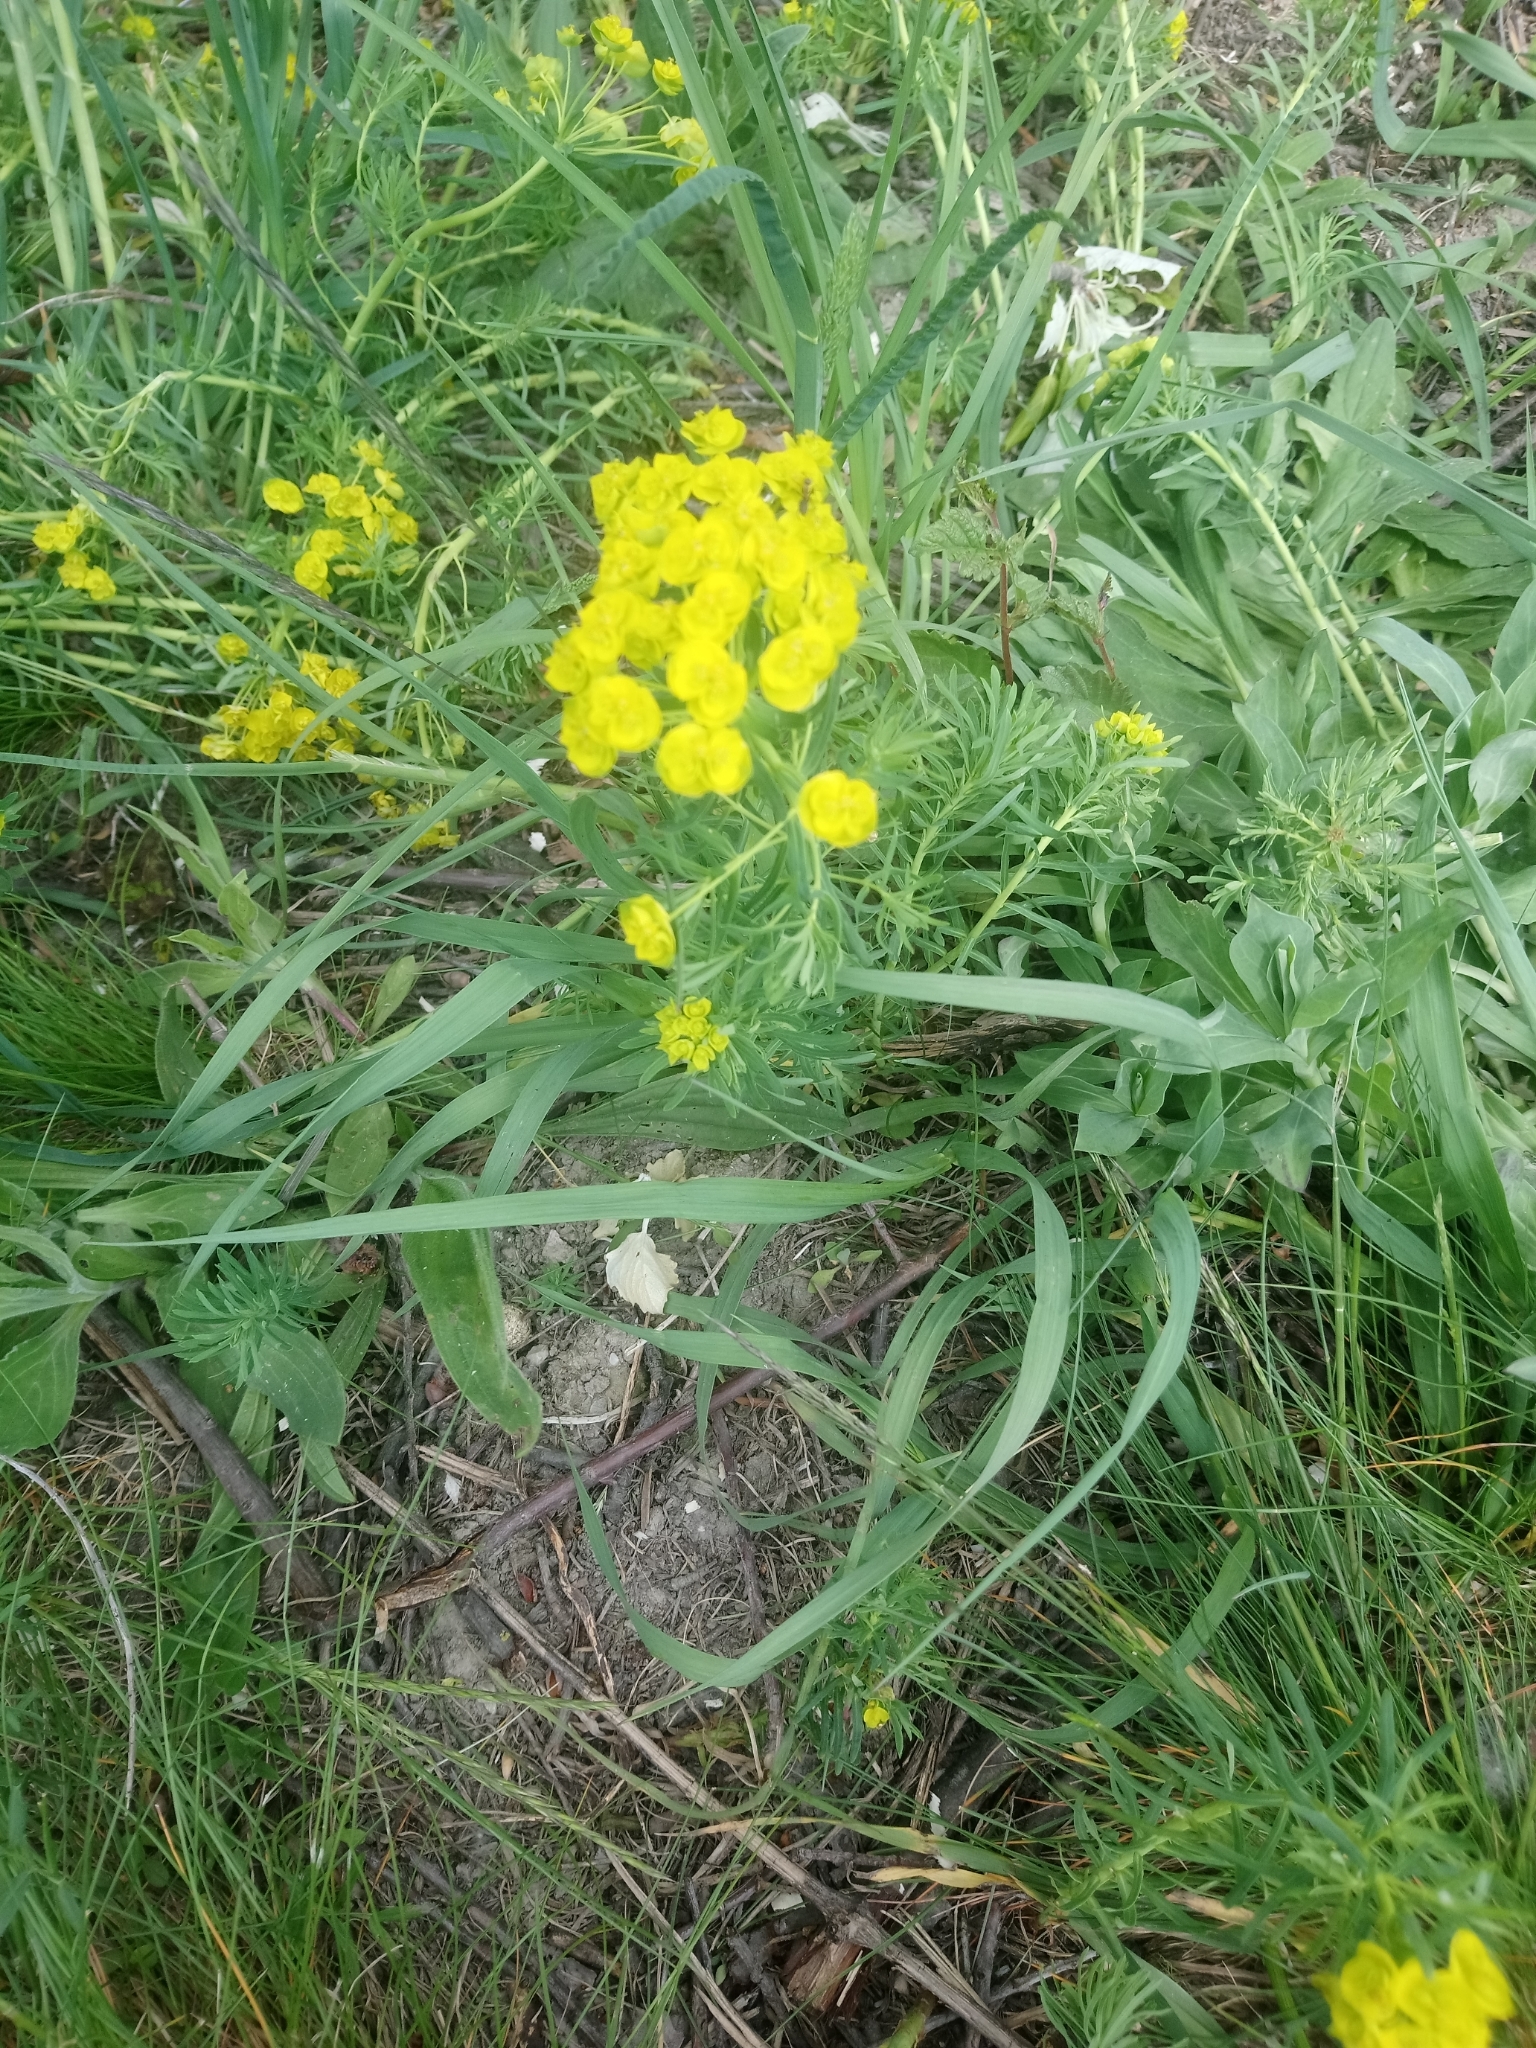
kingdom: Plantae
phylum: Tracheophyta
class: Magnoliopsida
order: Malpighiales
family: Euphorbiaceae
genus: Euphorbia
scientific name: Euphorbia cyparissias
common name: Cypress spurge
